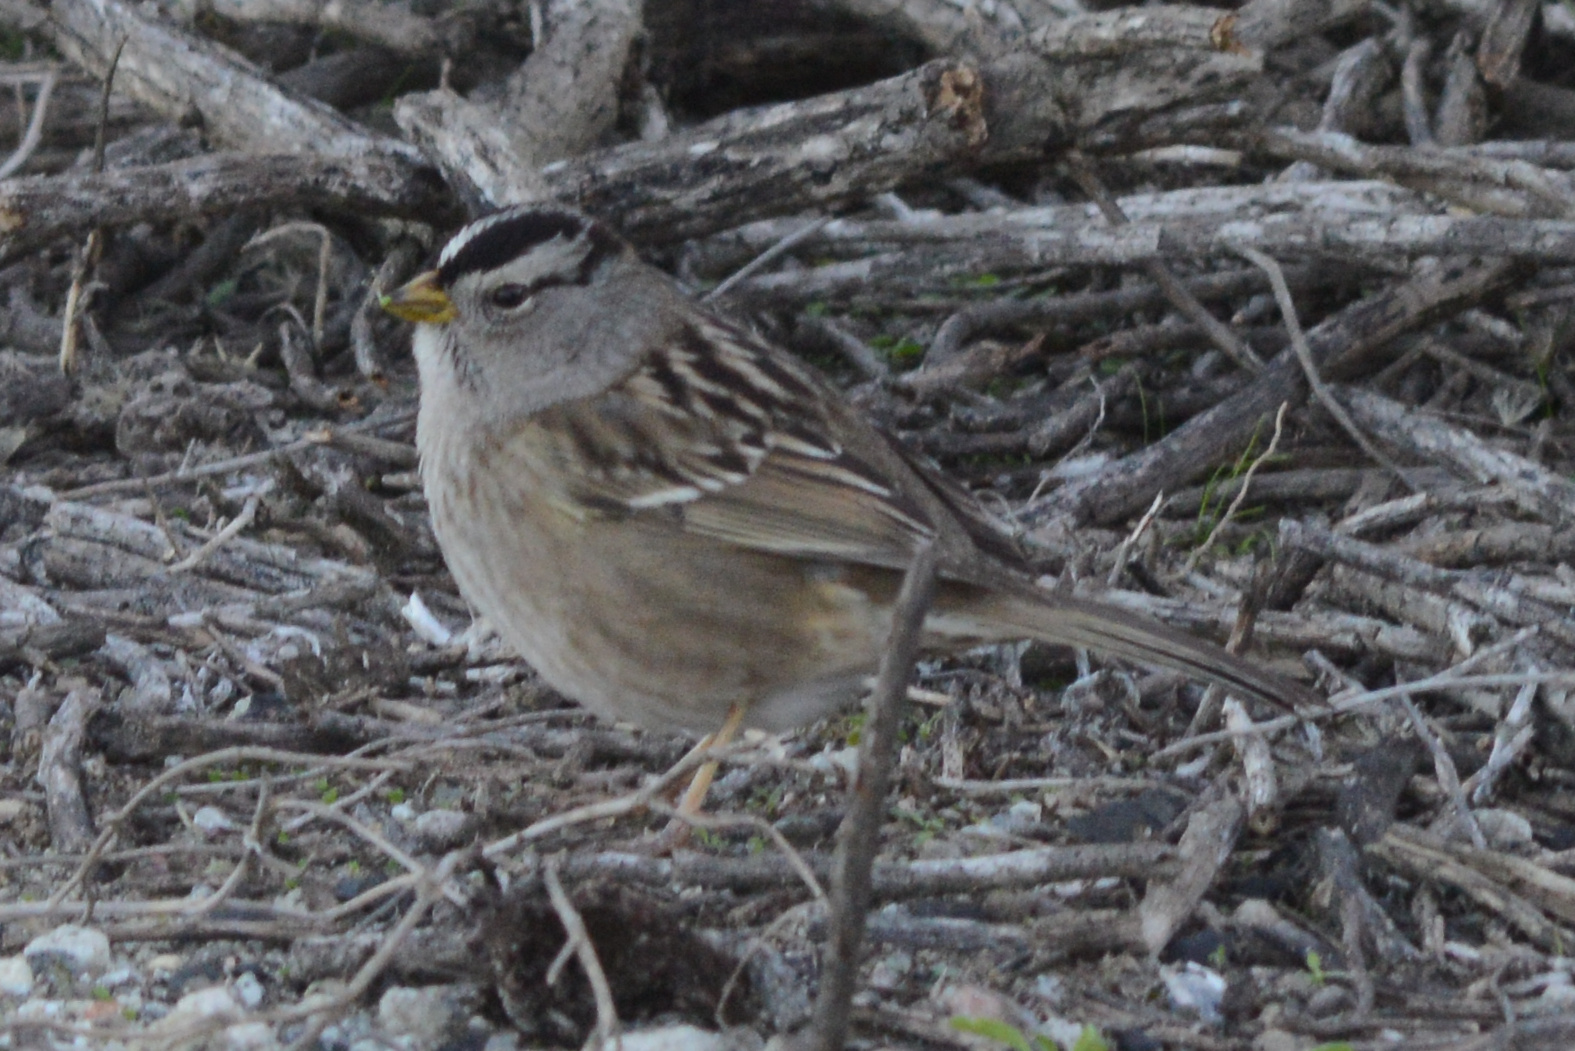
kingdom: Animalia
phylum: Chordata
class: Aves
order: Passeriformes
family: Passerellidae
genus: Zonotrichia
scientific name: Zonotrichia leucophrys
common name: White-crowned sparrow
